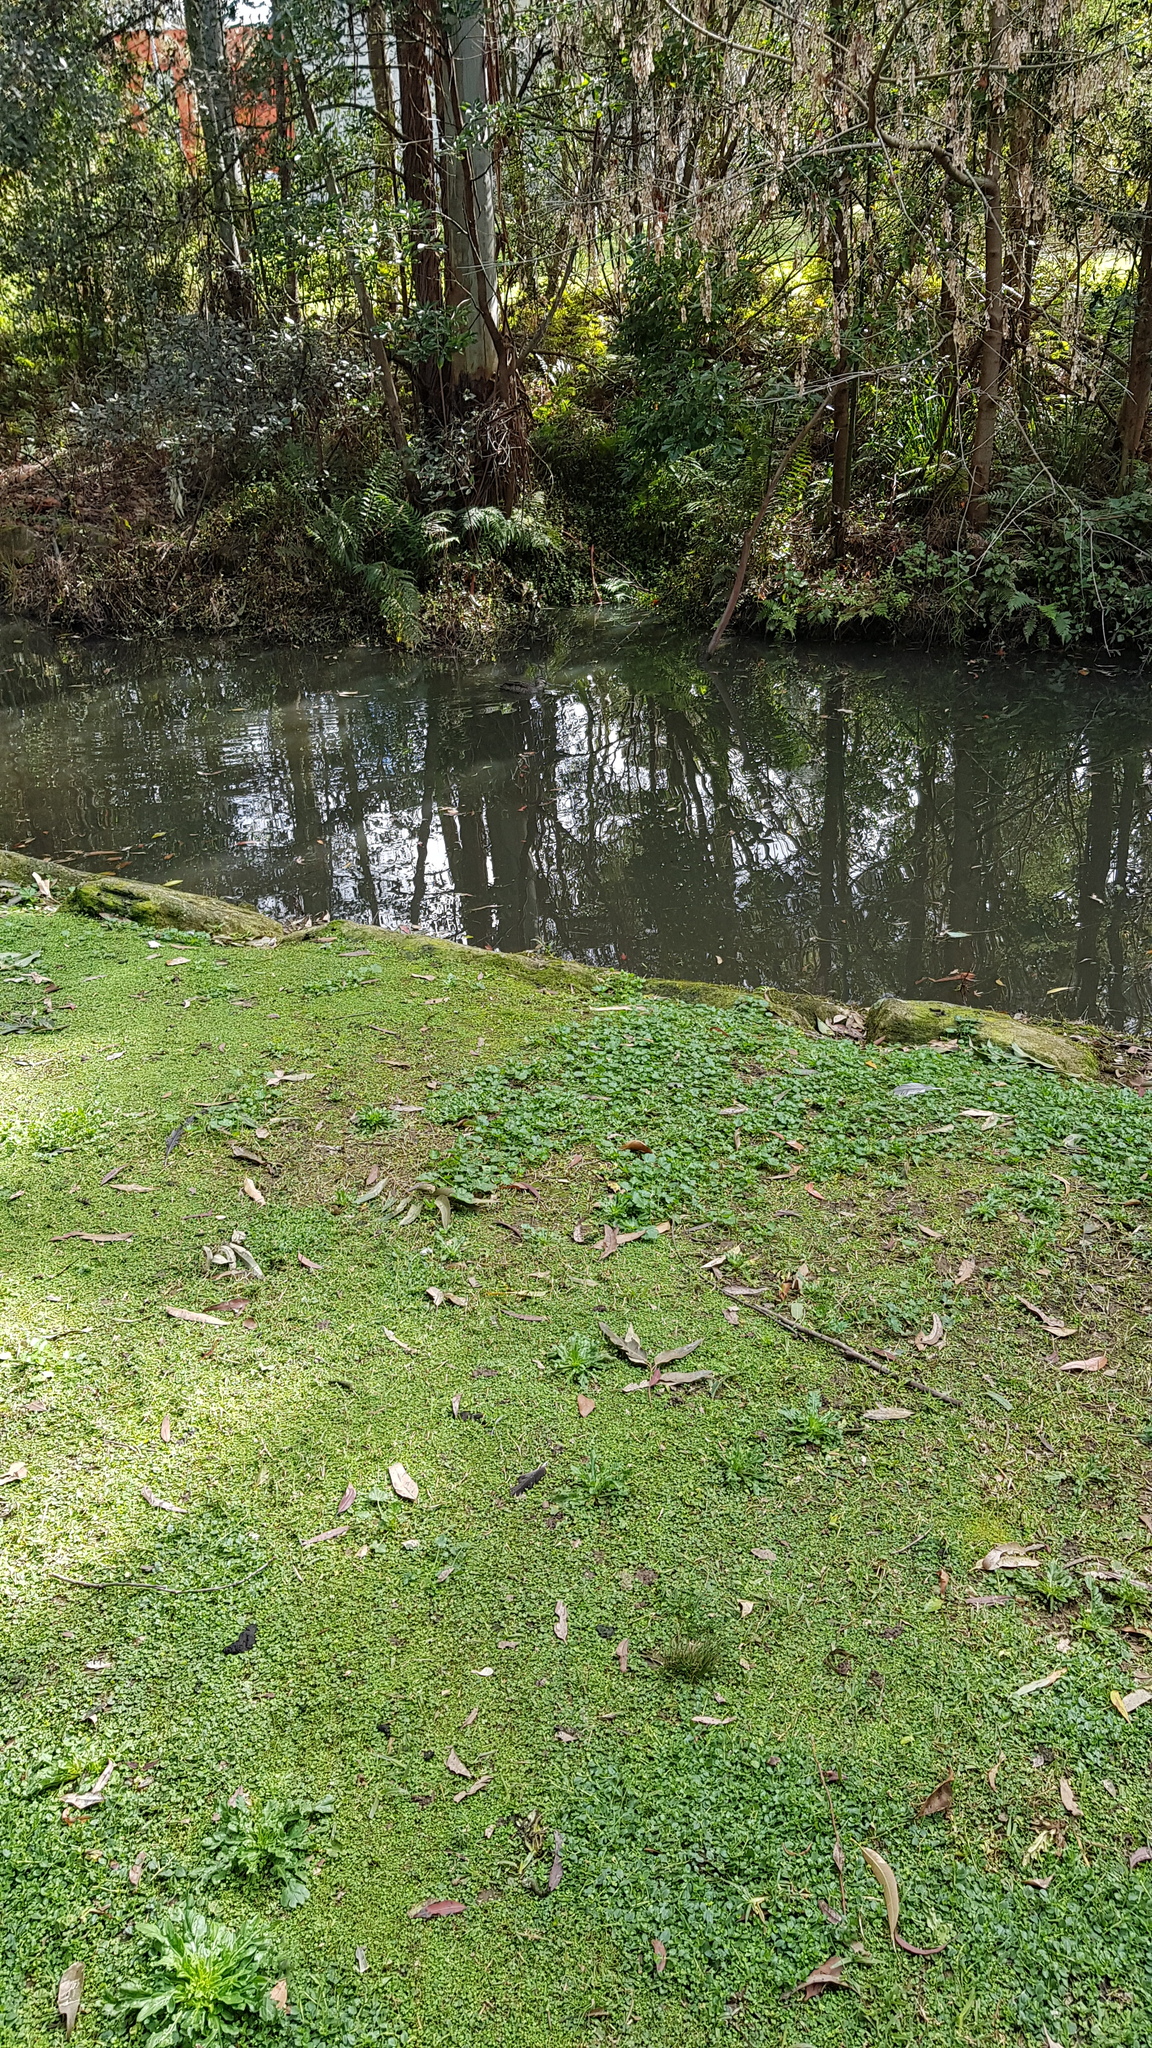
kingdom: Animalia
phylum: Chordata
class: Aves
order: Anseriformes
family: Anatidae
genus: Anas
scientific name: Anas superciliosa
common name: Pacific black duck
